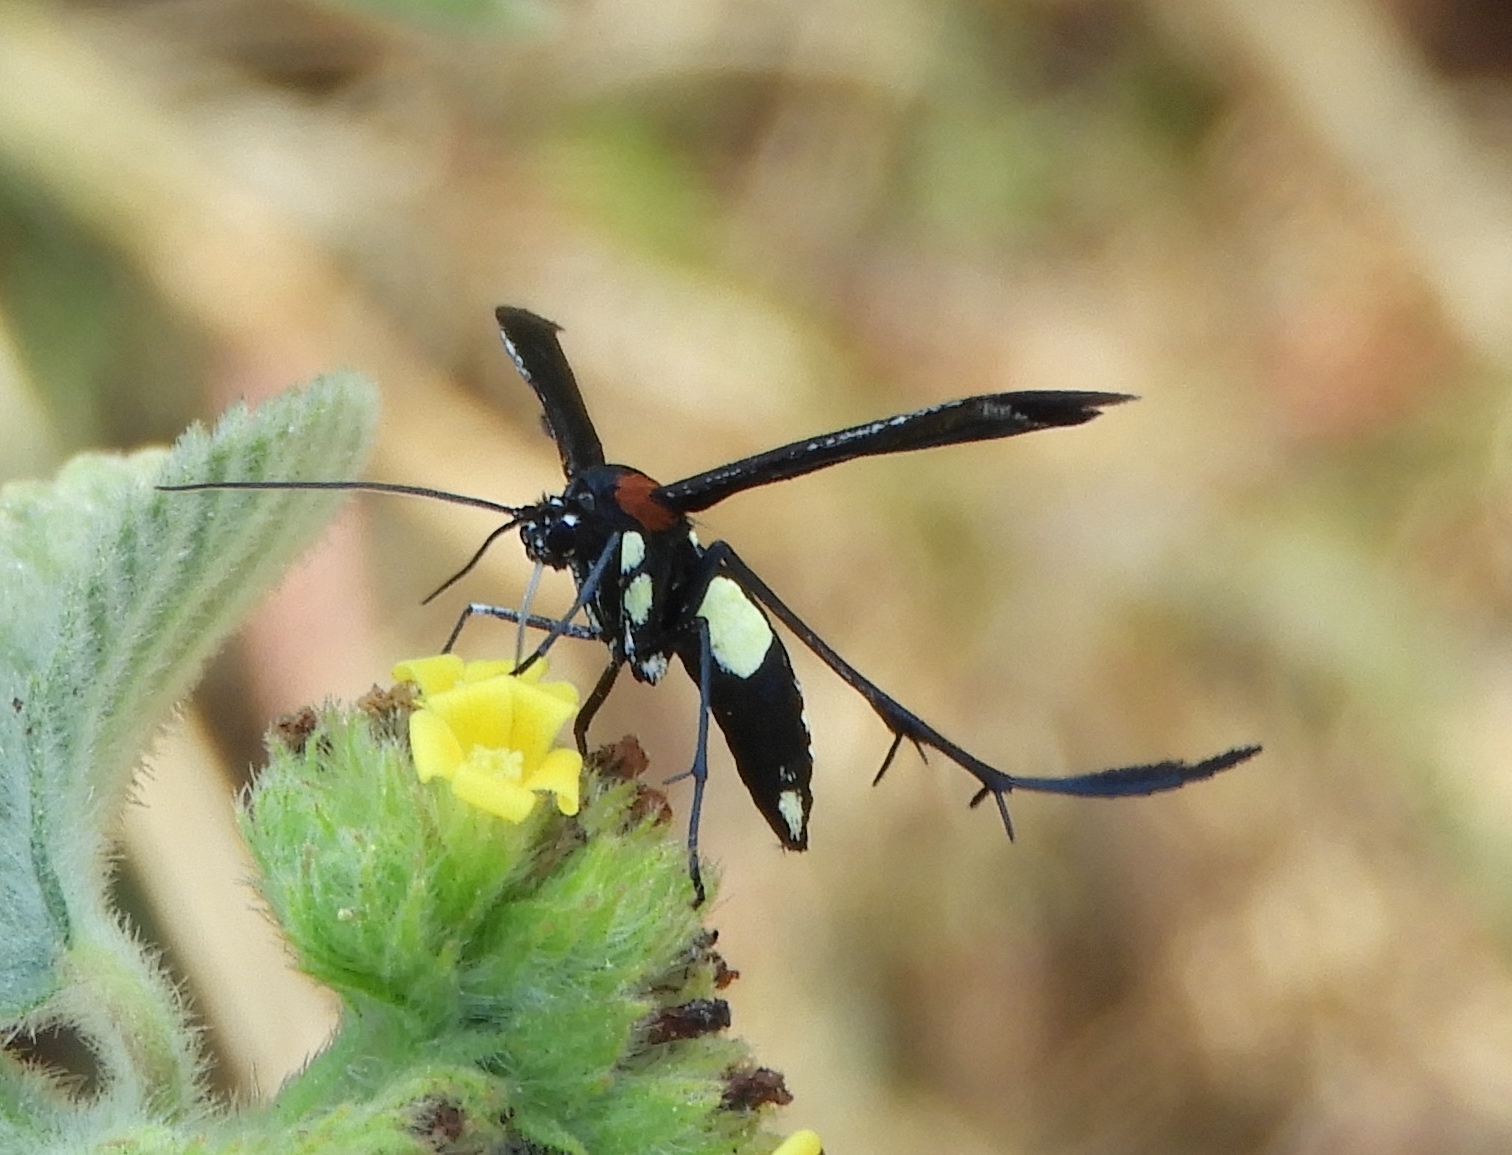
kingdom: Animalia
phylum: Arthropoda
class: Insecta
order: Lepidoptera
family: Pterophoridae
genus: Hellinsia
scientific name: Hellinsia chamelai
